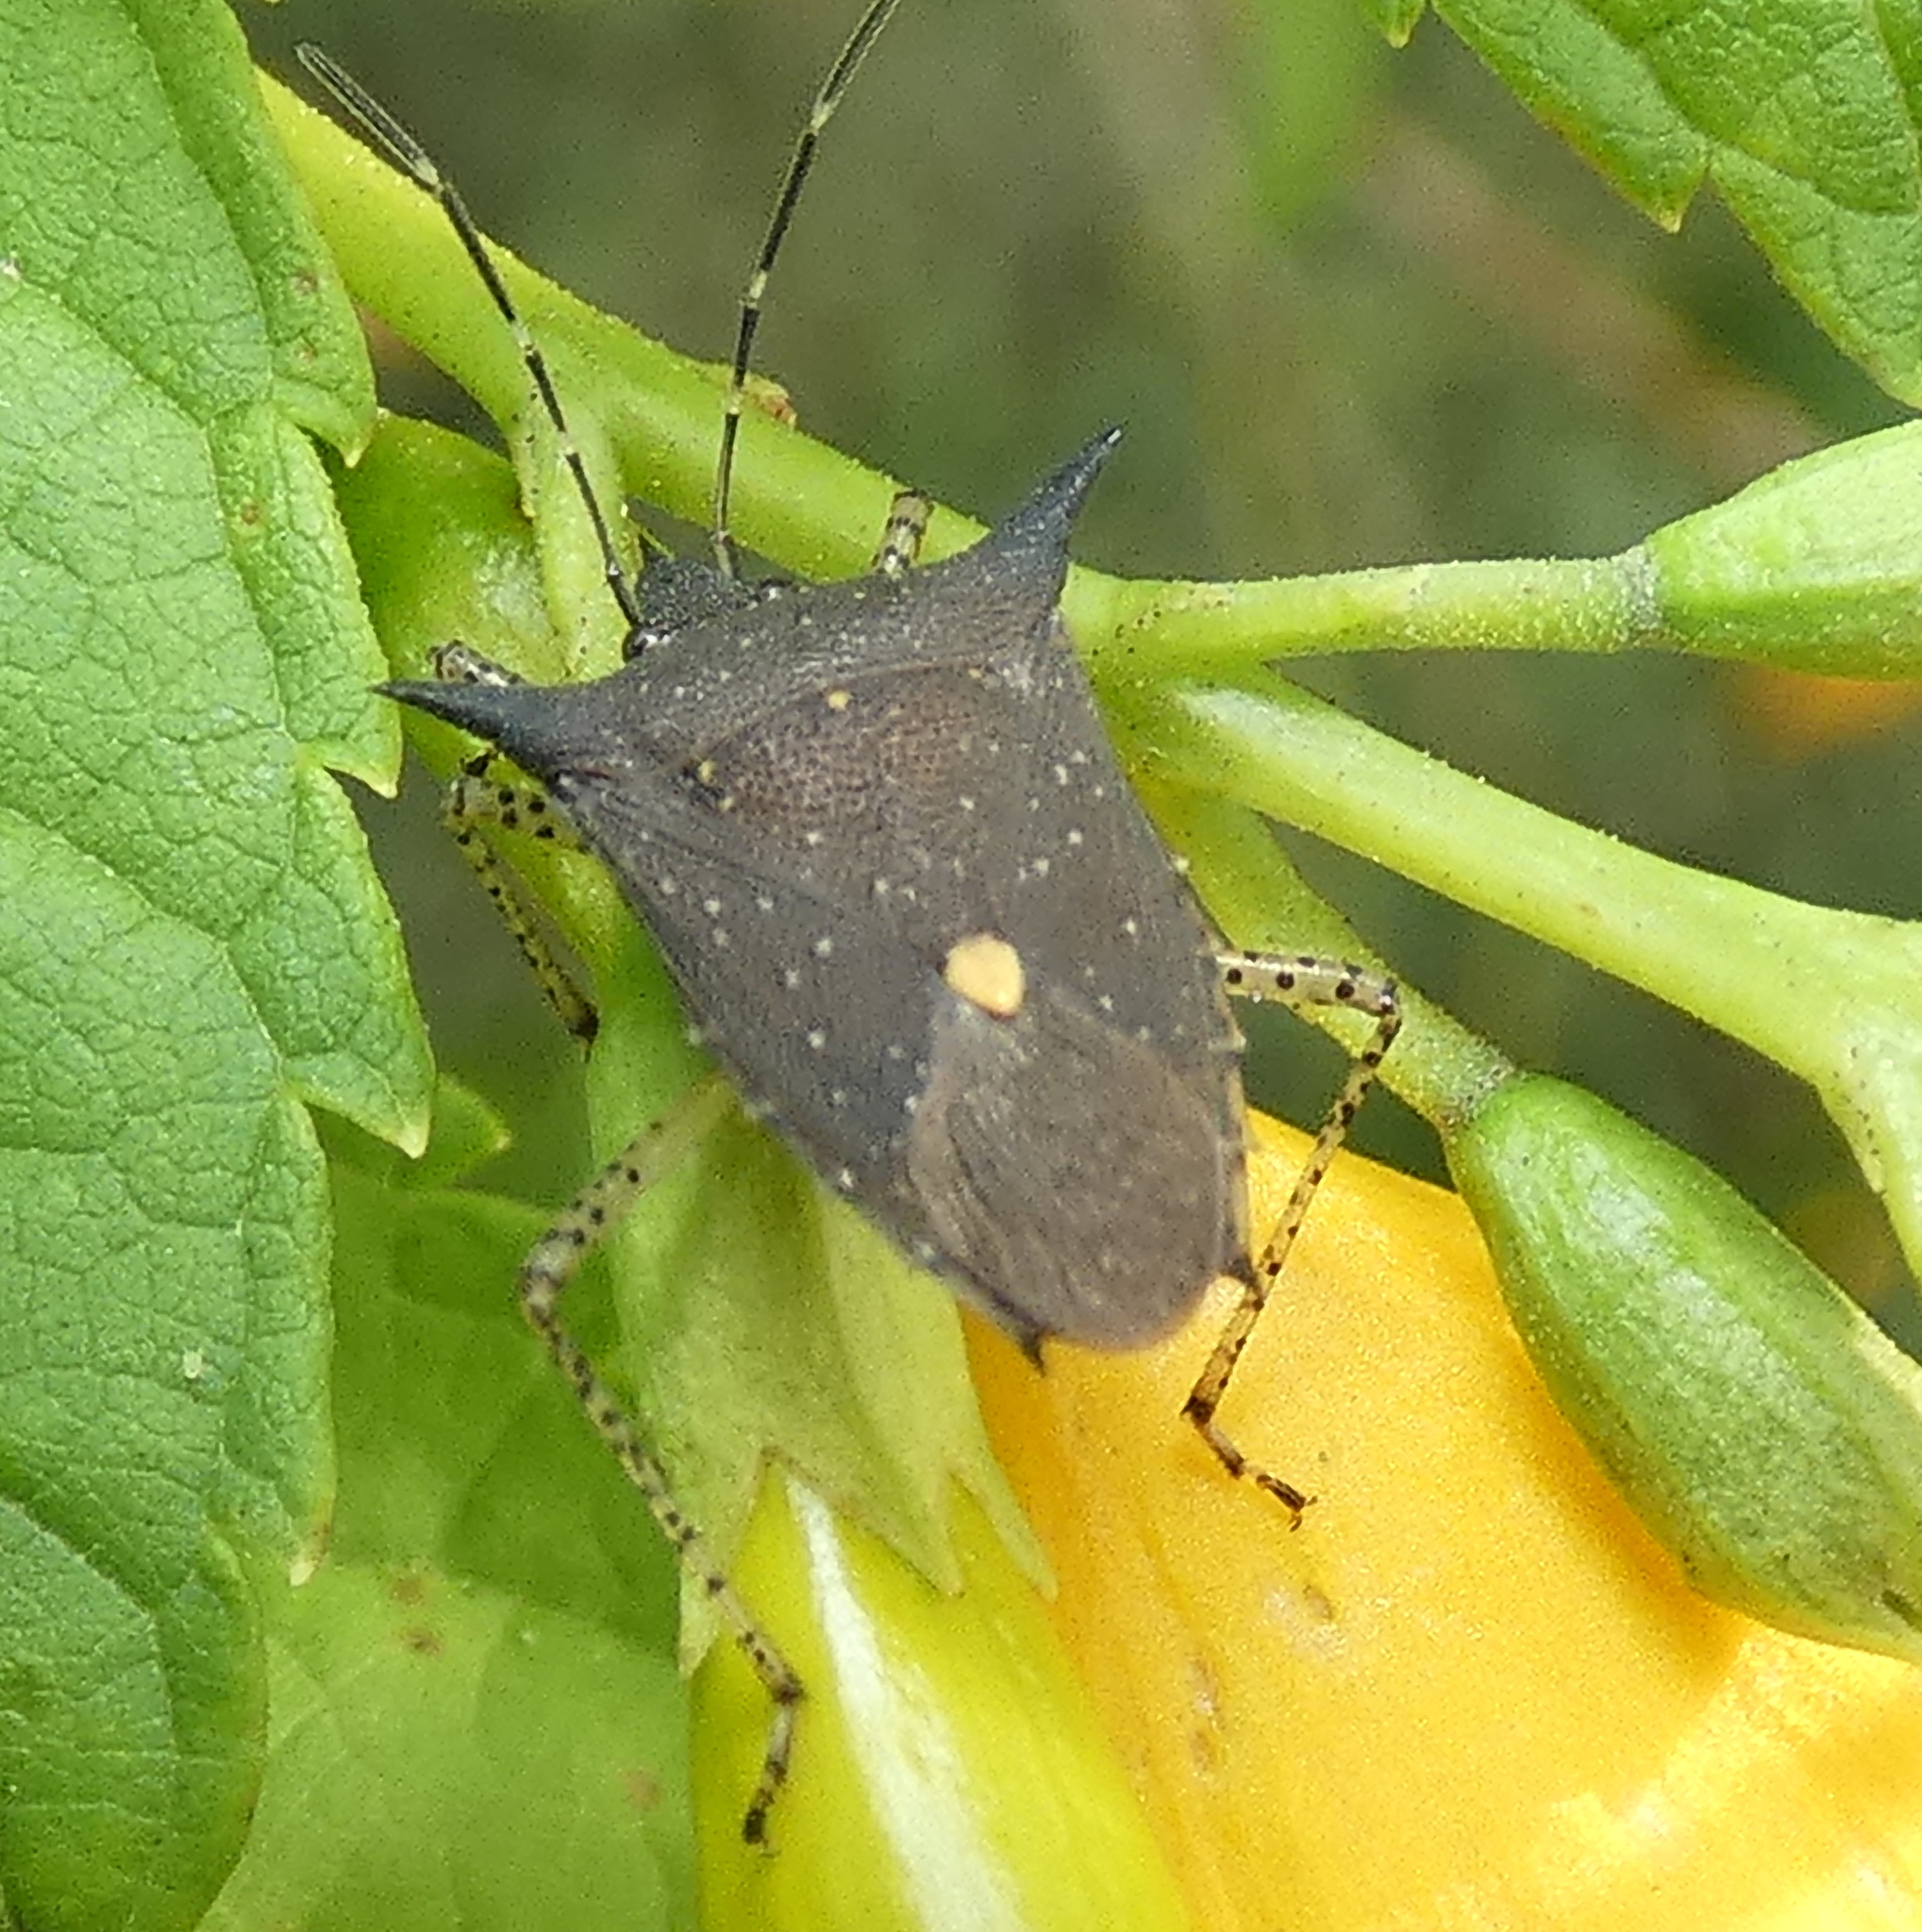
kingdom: Animalia
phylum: Arthropoda
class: Insecta
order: Hemiptera
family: Pentatomidae
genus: Proxys
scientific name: Proxys albopunctulatus
